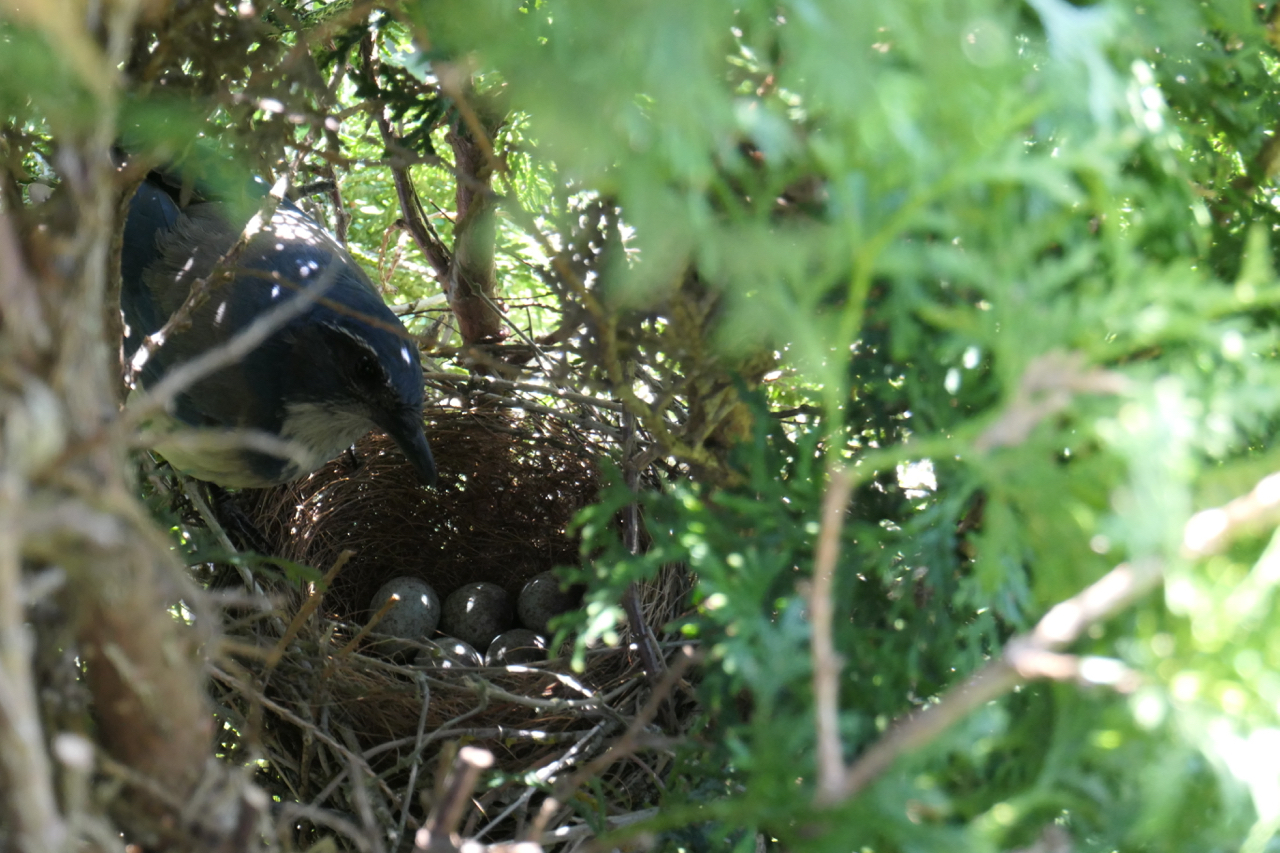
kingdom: Animalia
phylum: Chordata
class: Aves
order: Passeriformes
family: Corvidae
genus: Aphelocoma
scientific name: Aphelocoma californica
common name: California scrub-jay
